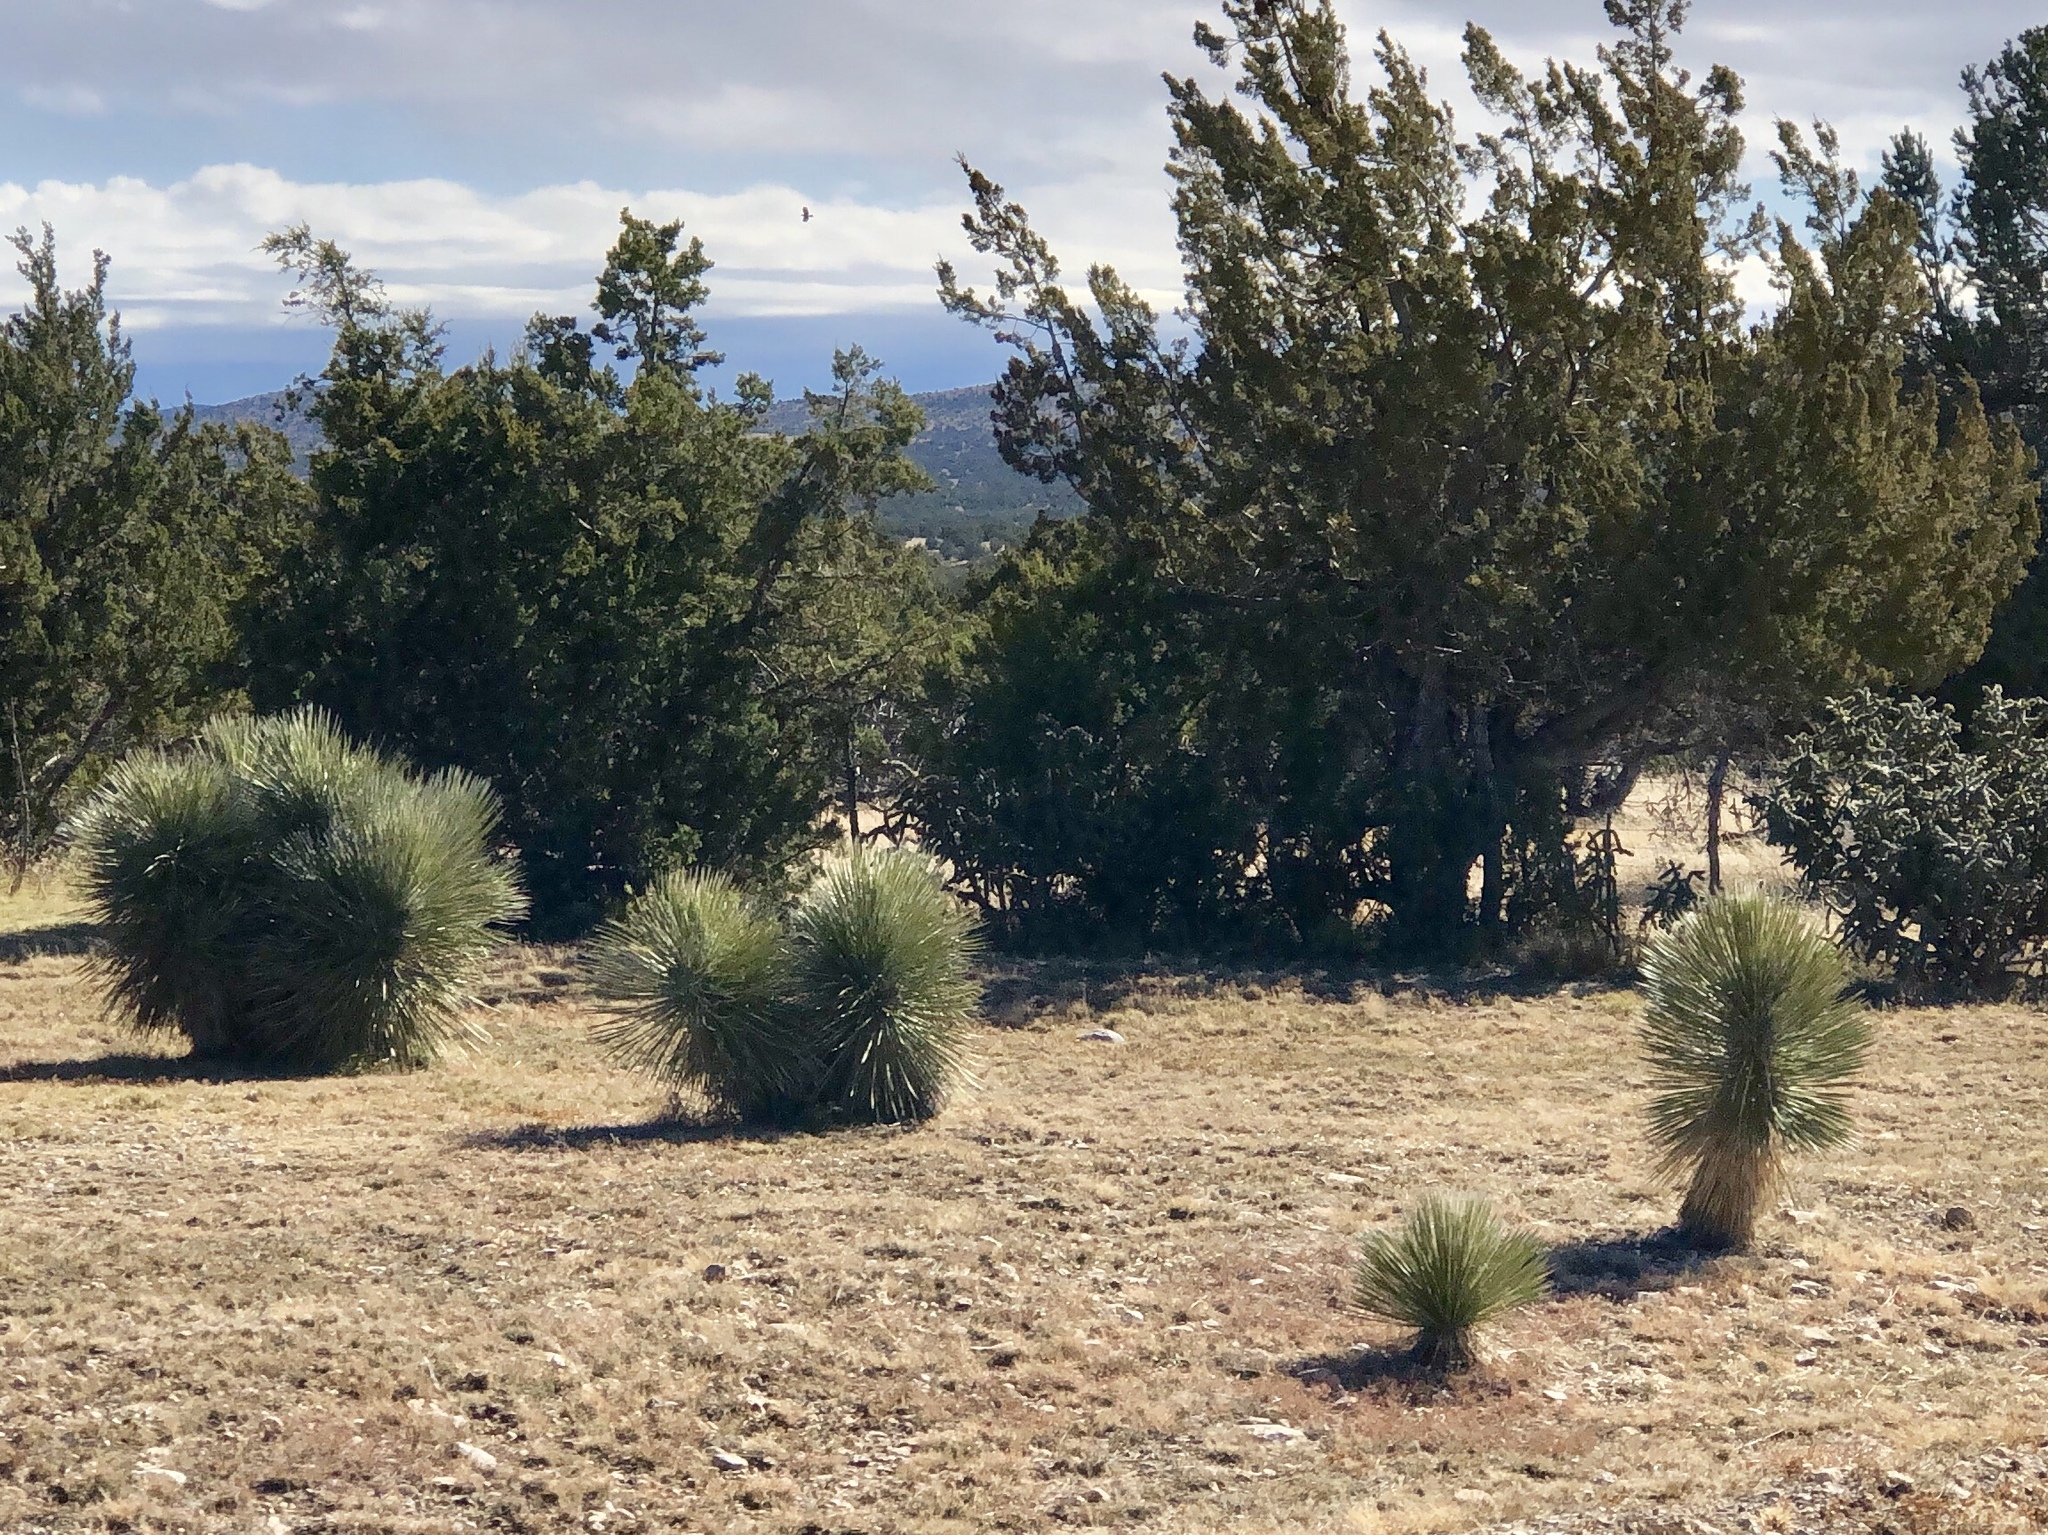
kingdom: Plantae
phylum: Tracheophyta
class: Liliopsida
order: Asparagales
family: Asparagaceae
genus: Yucca
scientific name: Yucca elata
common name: Palmella
